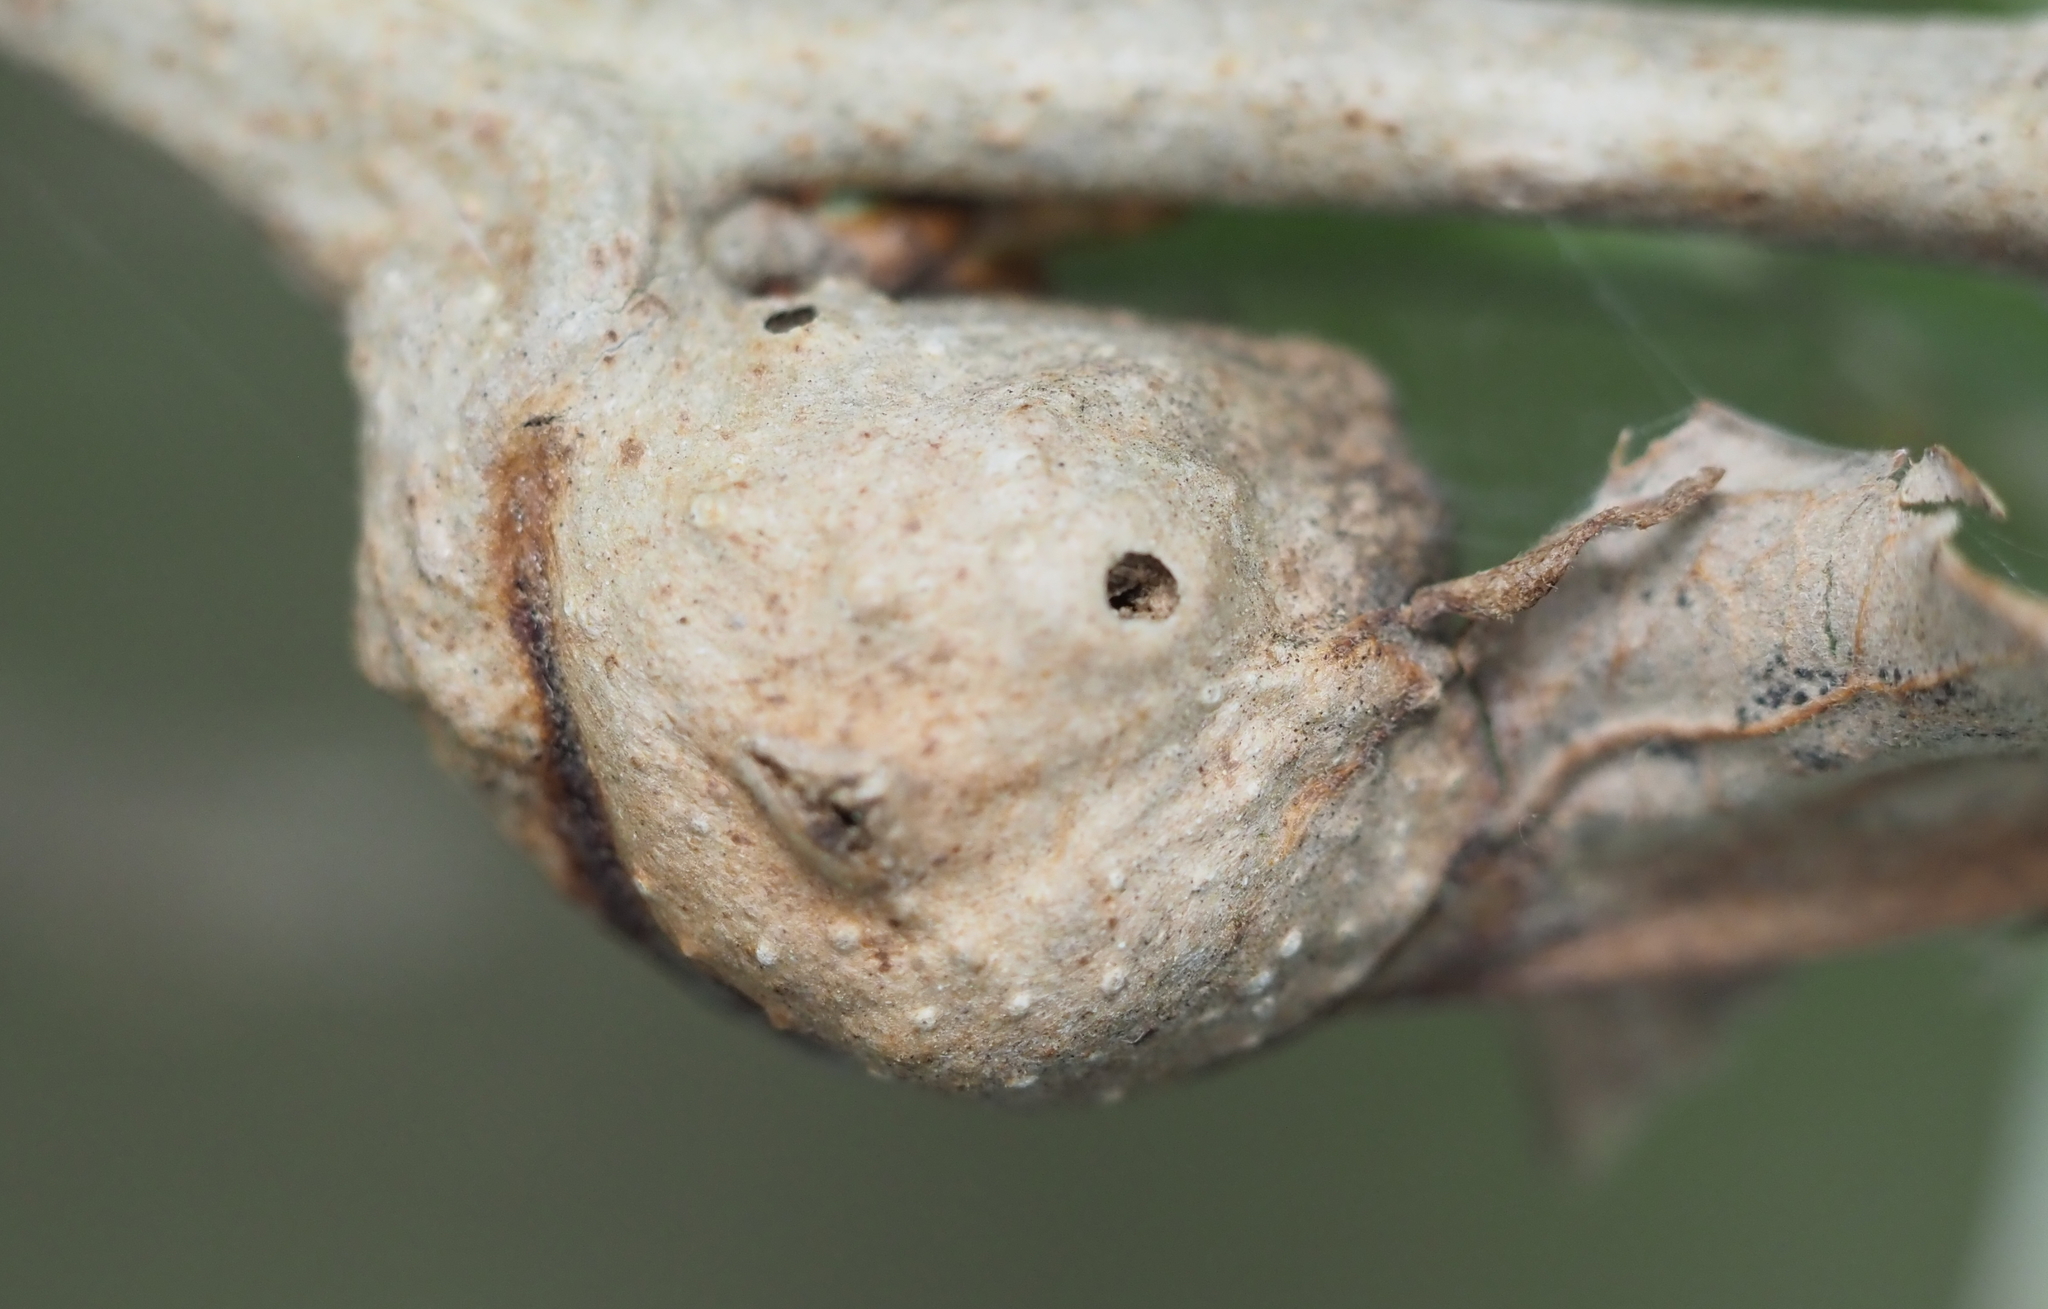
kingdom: Animalia
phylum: Arthropoda
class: Insecta
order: Hymenoptera
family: Cynipidae
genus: Andricus
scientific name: Andricus
